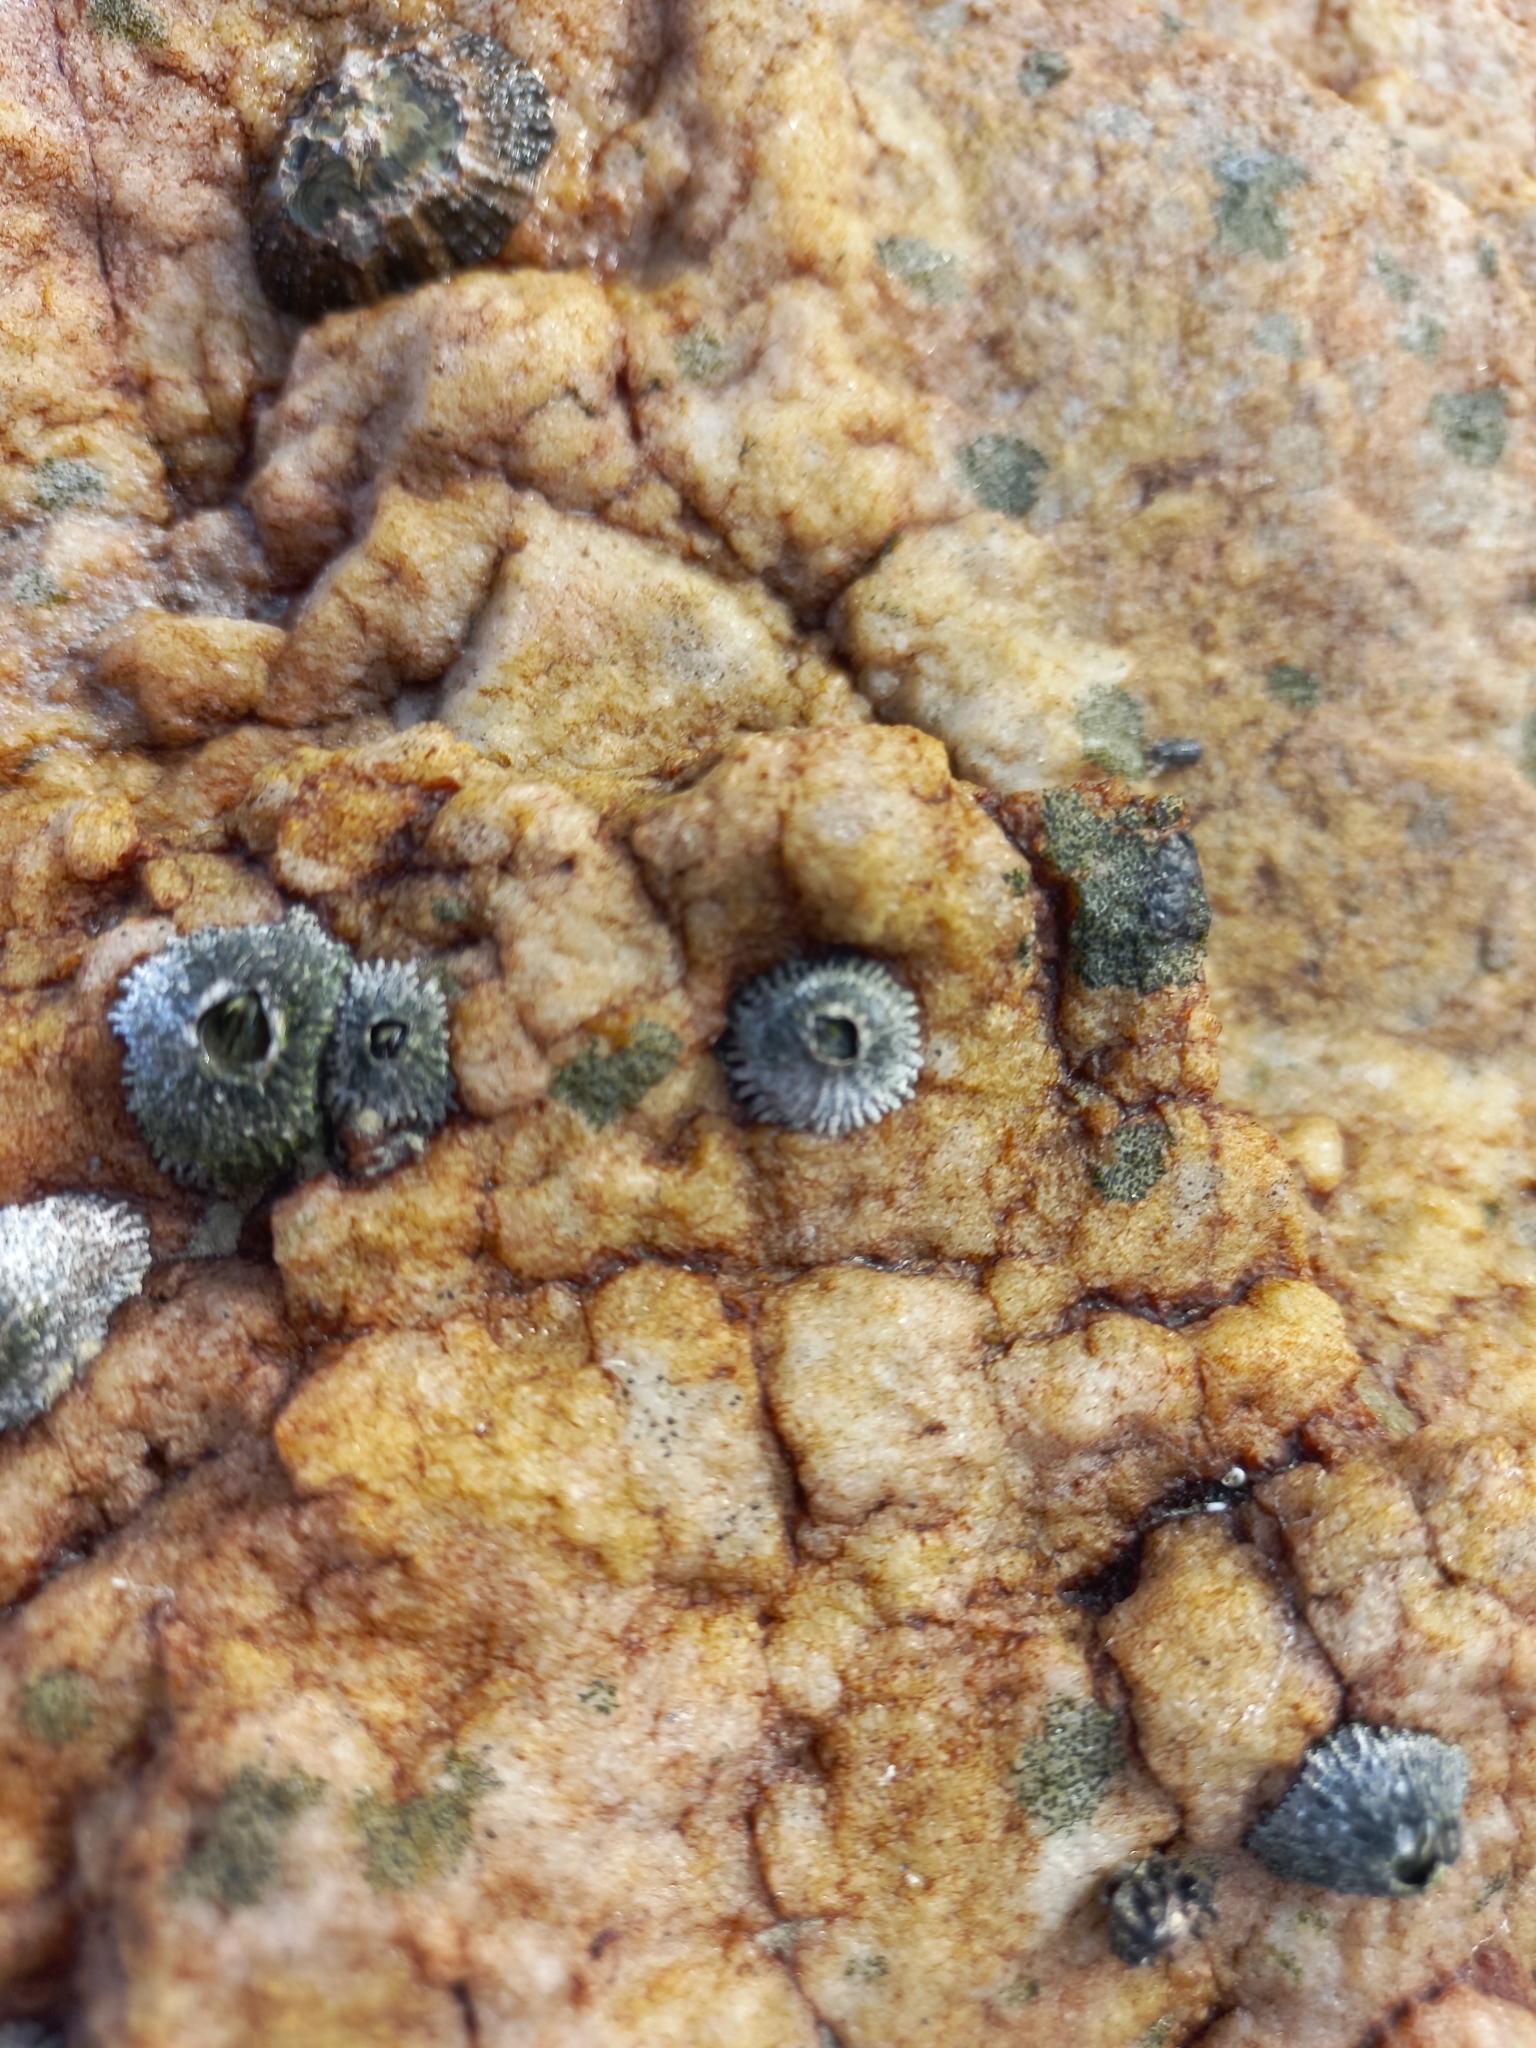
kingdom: Animalia
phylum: Arthropoda
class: Maxillopoda
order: Sessilia
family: Tetraclitidae
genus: Tetraclita
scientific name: Tetraclita serrata
